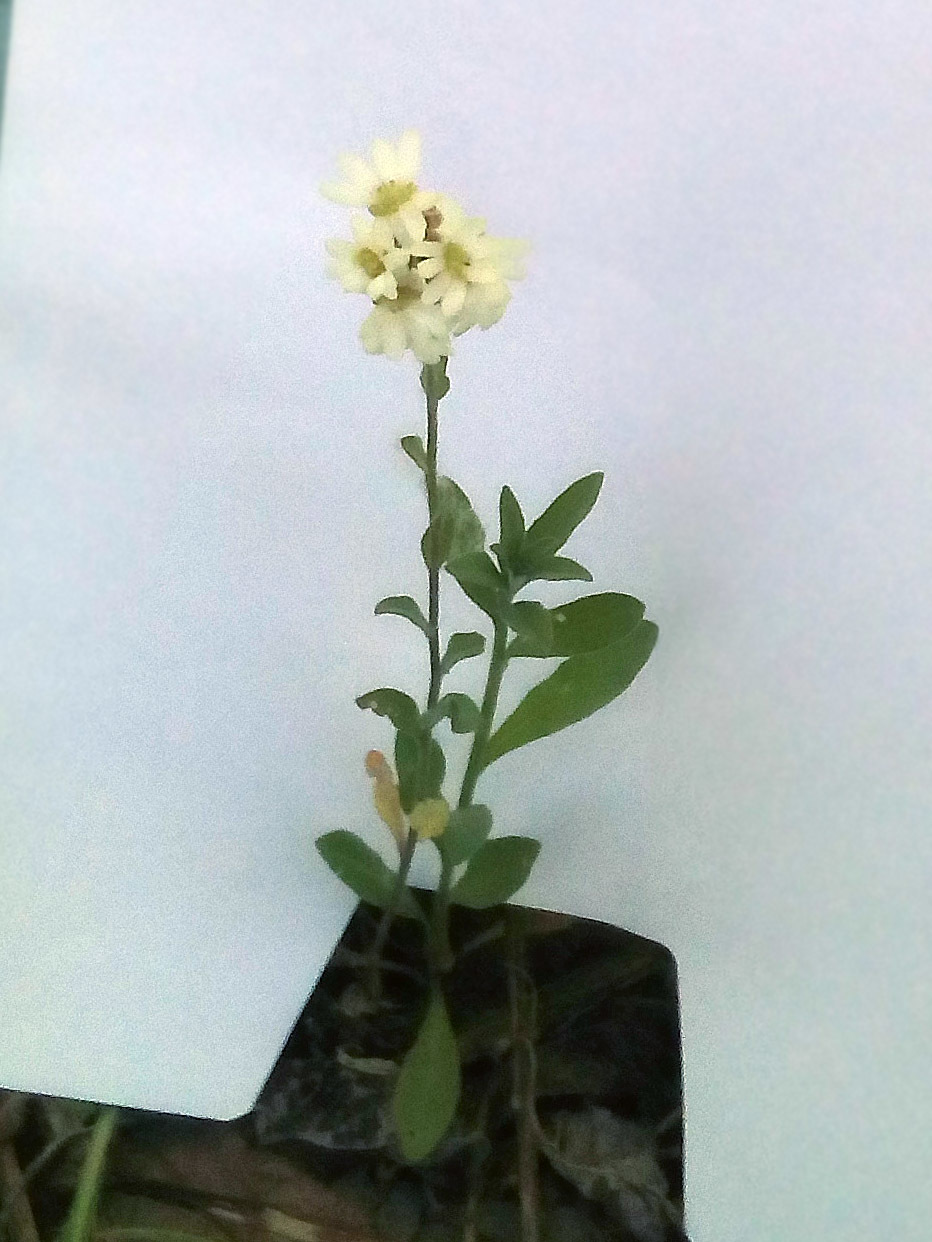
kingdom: Plantae
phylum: Tracheophyta
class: Magnoliopsida
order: Brassicales
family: Brassicaceae
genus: Berteroa
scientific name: Berteroa incana
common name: Hoary alison
